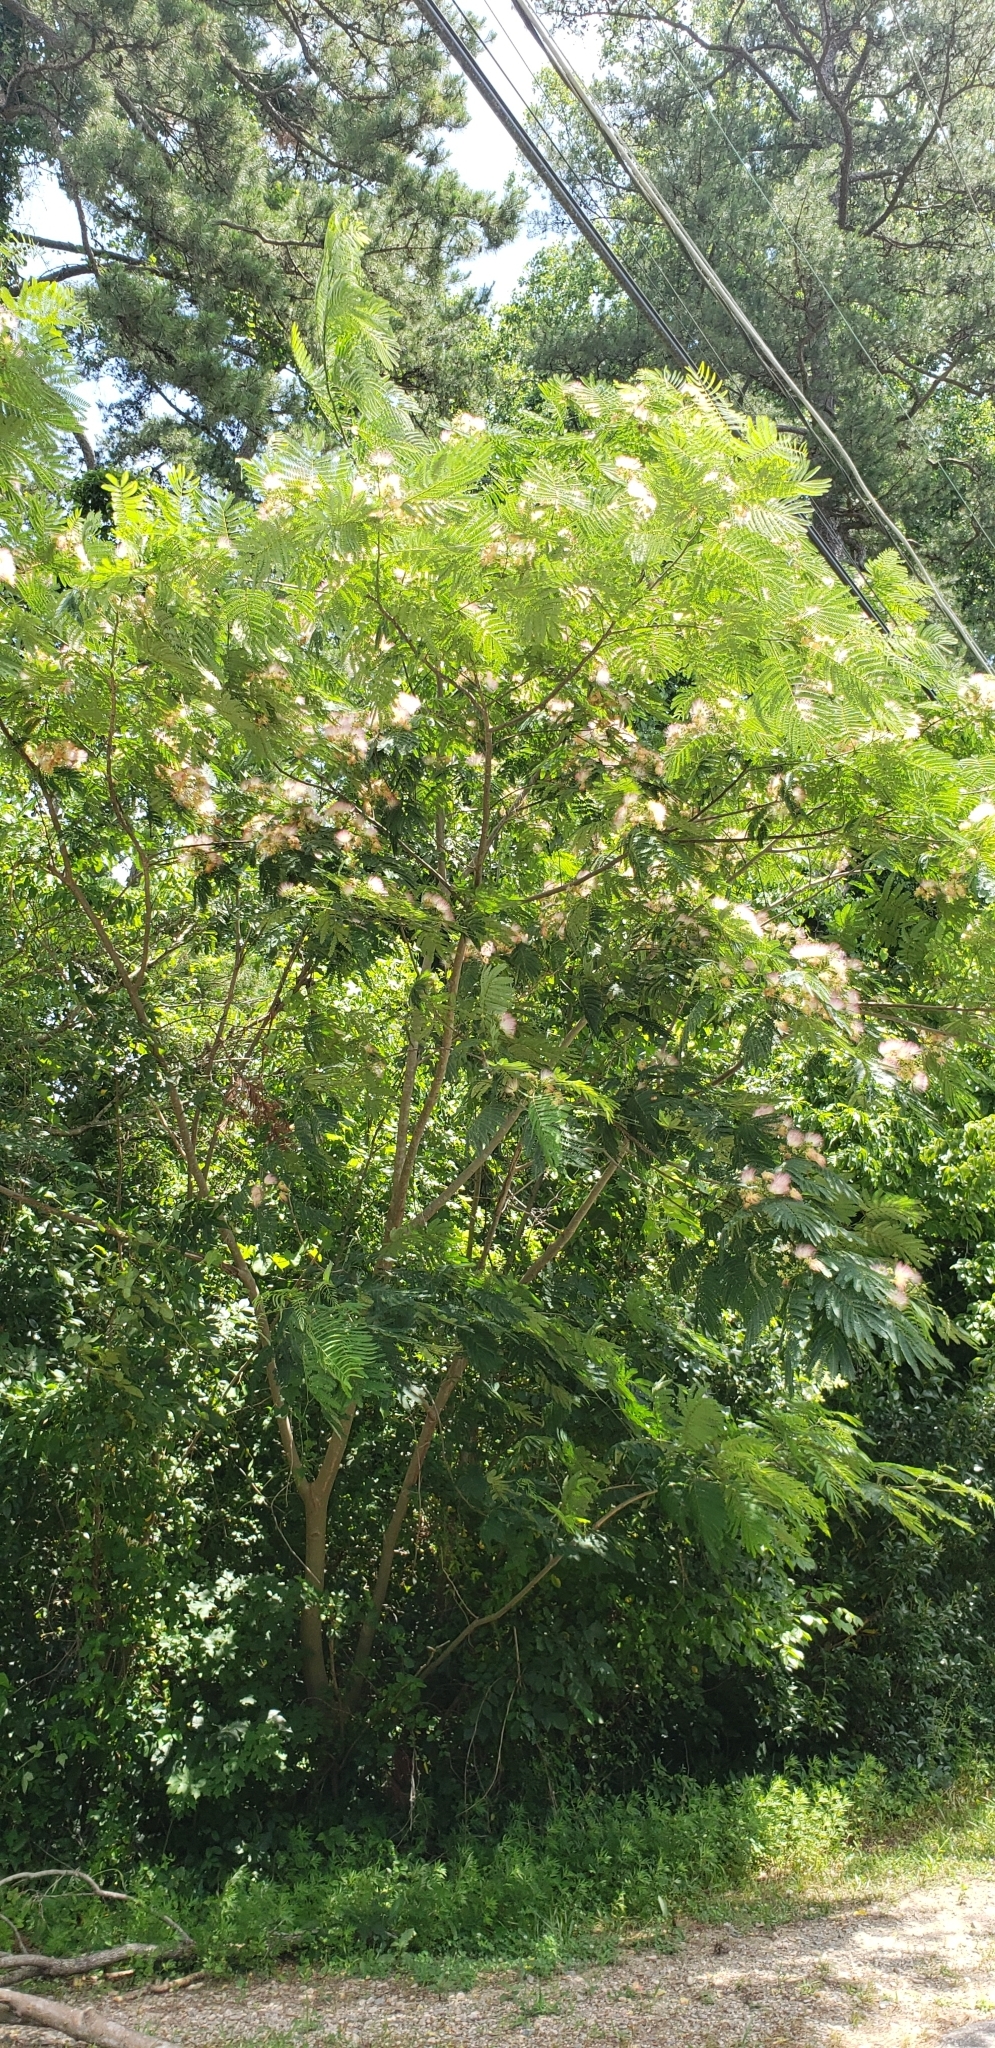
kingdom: Plantae
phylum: Tracheophyta
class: Magnoliopsida
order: Fabales
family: Fabaceae
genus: Albizia
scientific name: Albizia julibrissin
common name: Silktree
